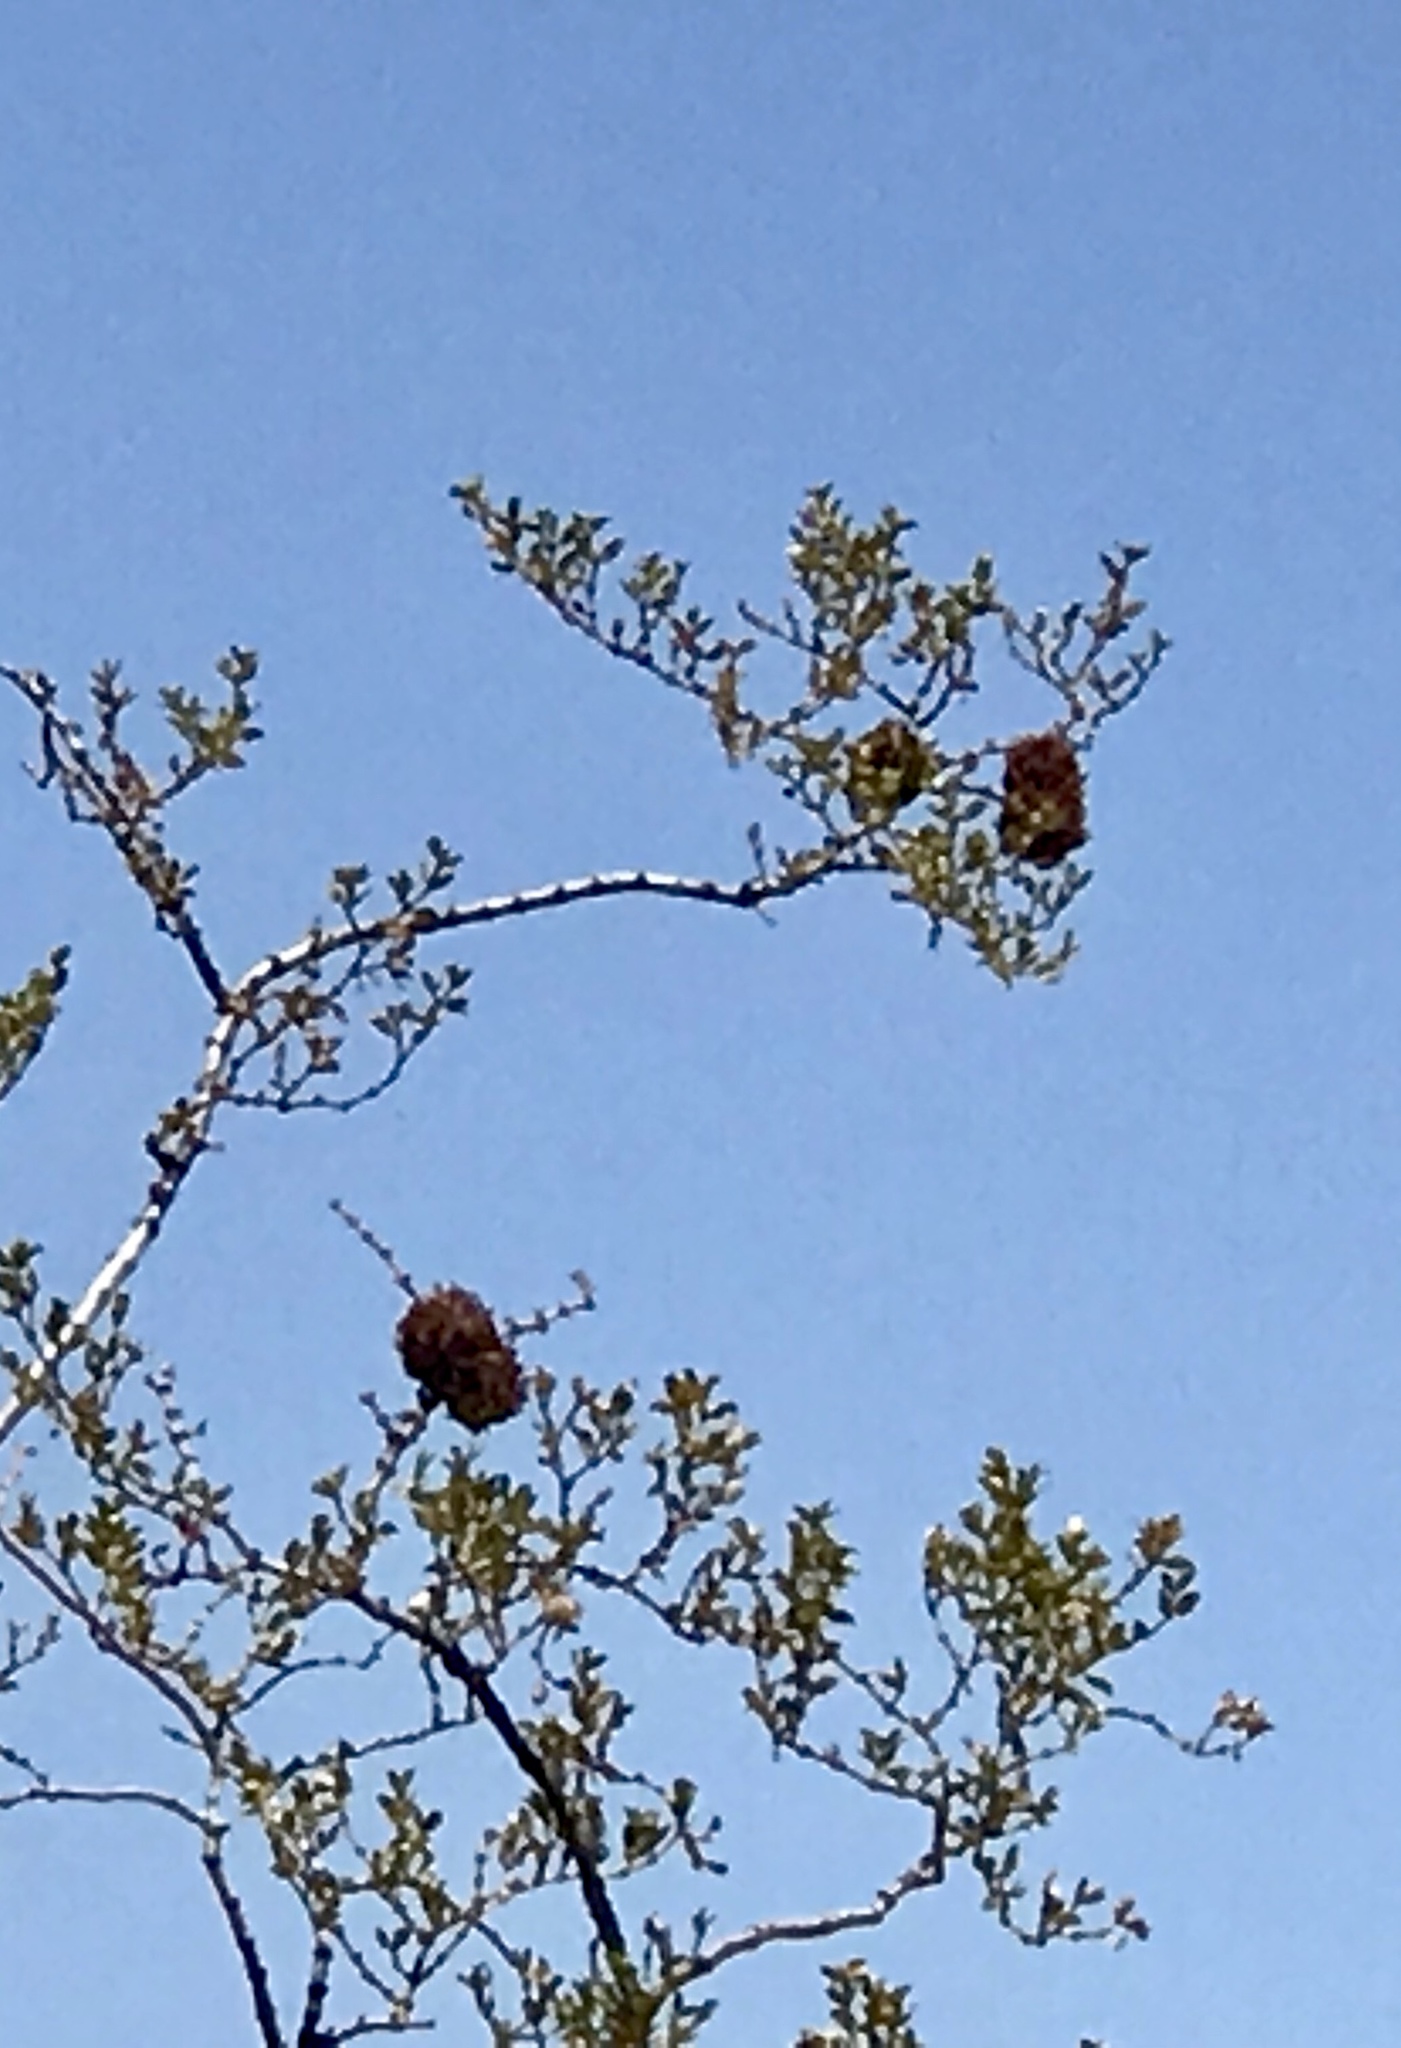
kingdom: Animalia
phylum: Arthropoda
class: Insecta
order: Diptera
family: Cecidomyiidae
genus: Asphondylia
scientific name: Asphondylia auripila
